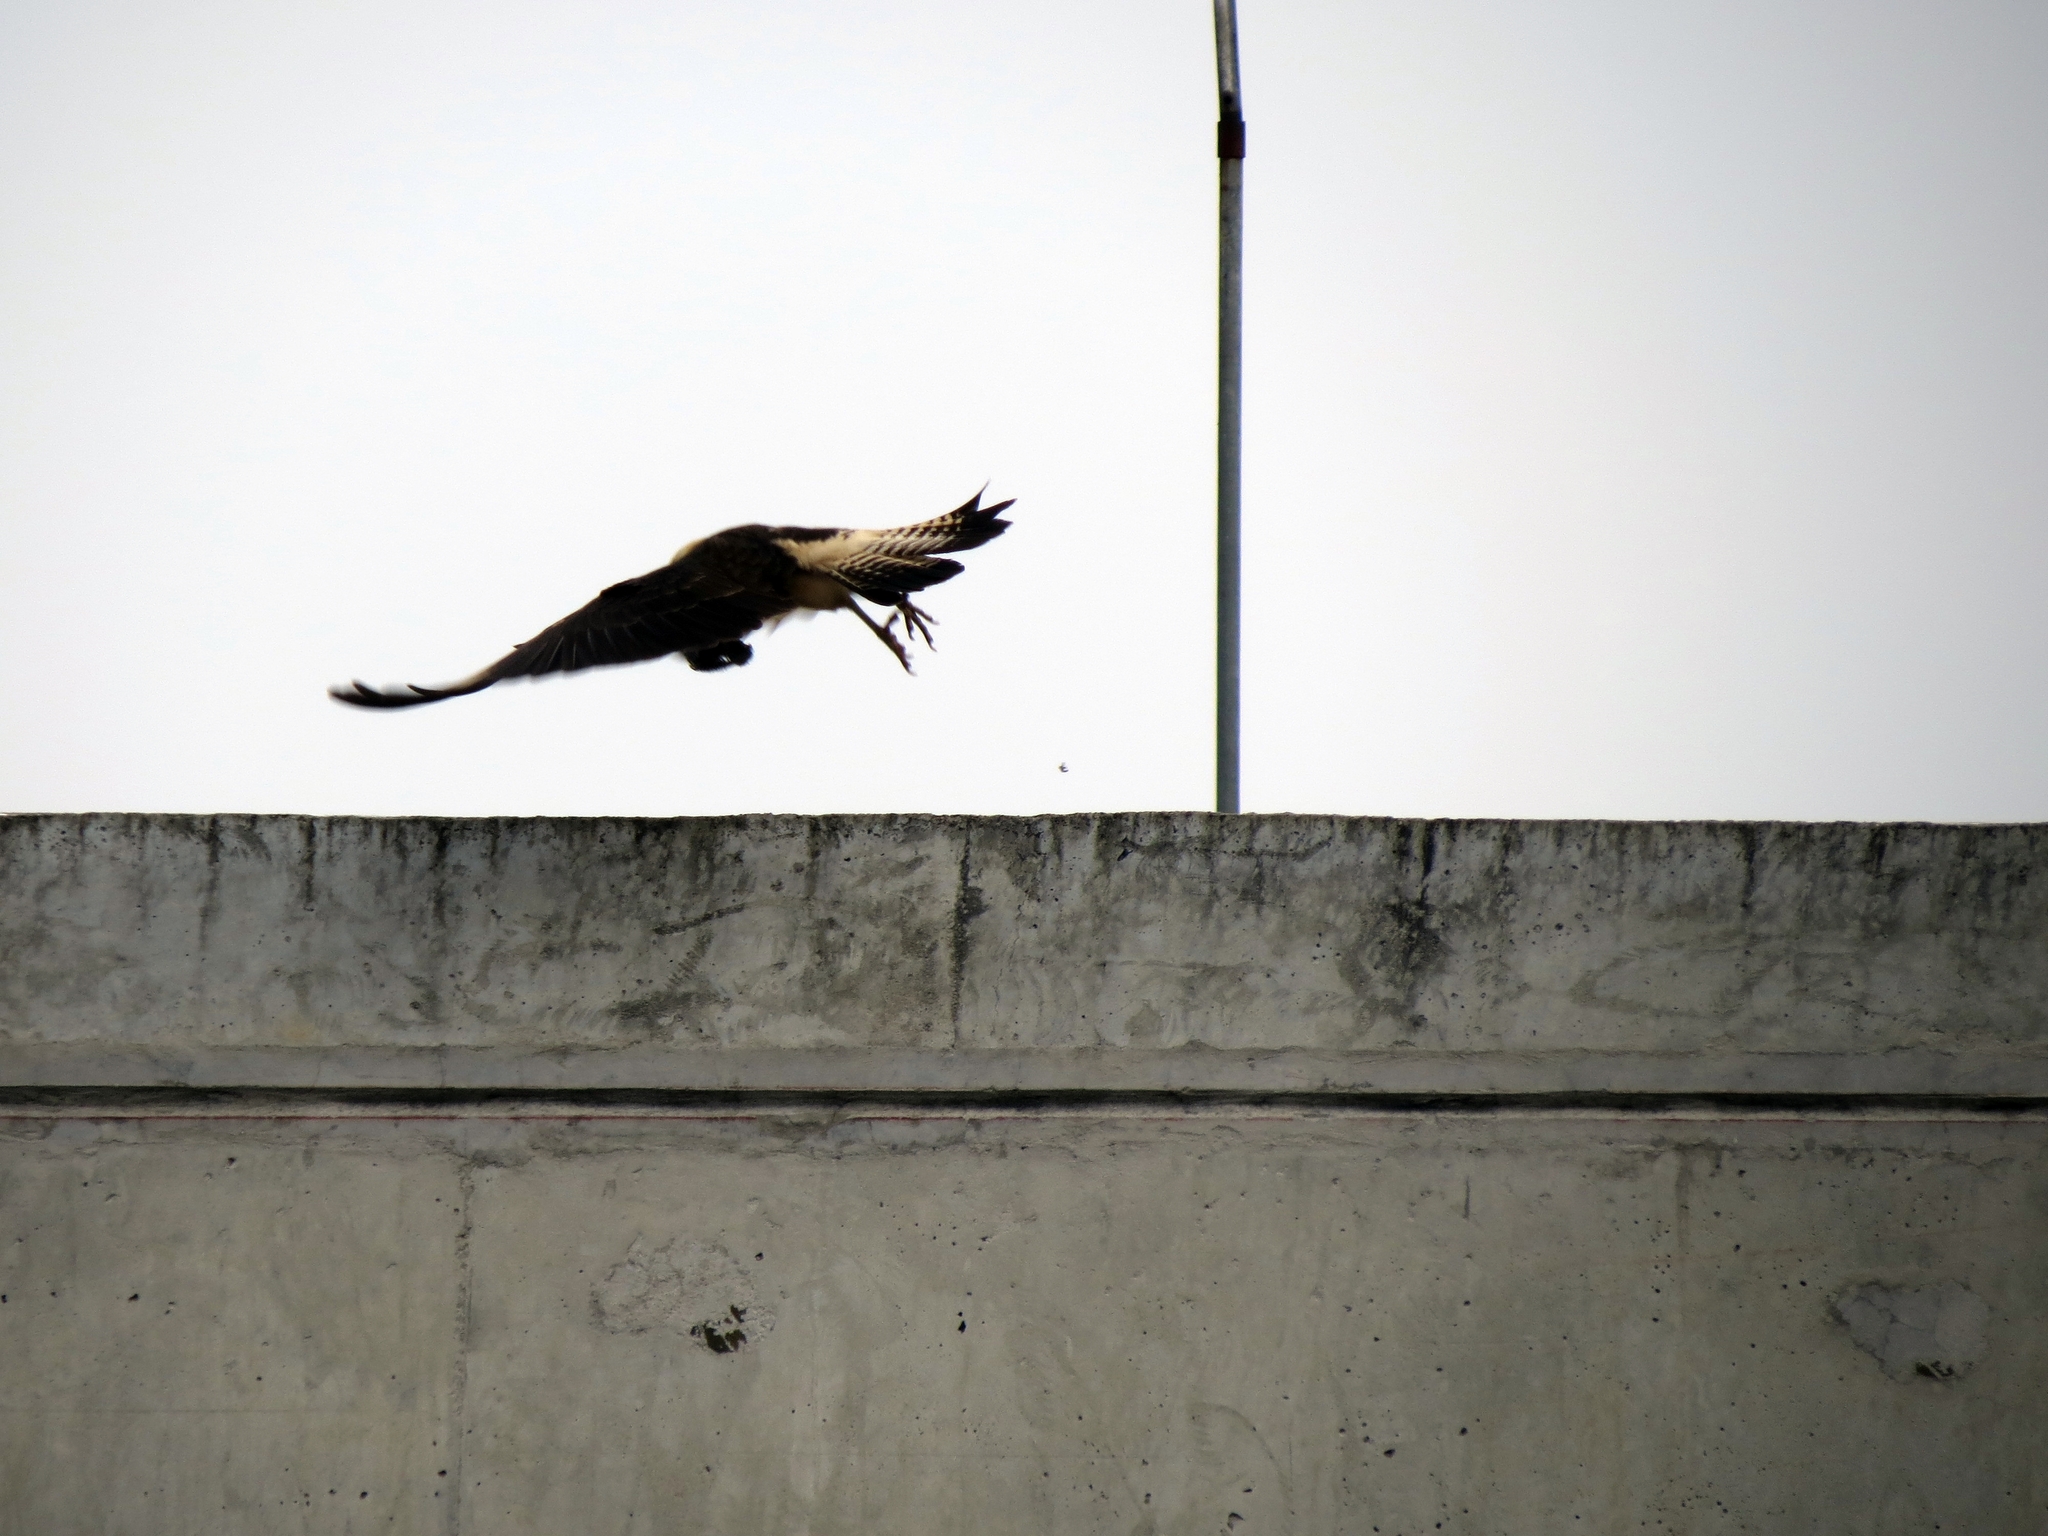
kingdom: Animalia
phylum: Chordata
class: Aves
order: Falconiformes
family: Falconidae
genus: Daptrius
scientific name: Daptrius
